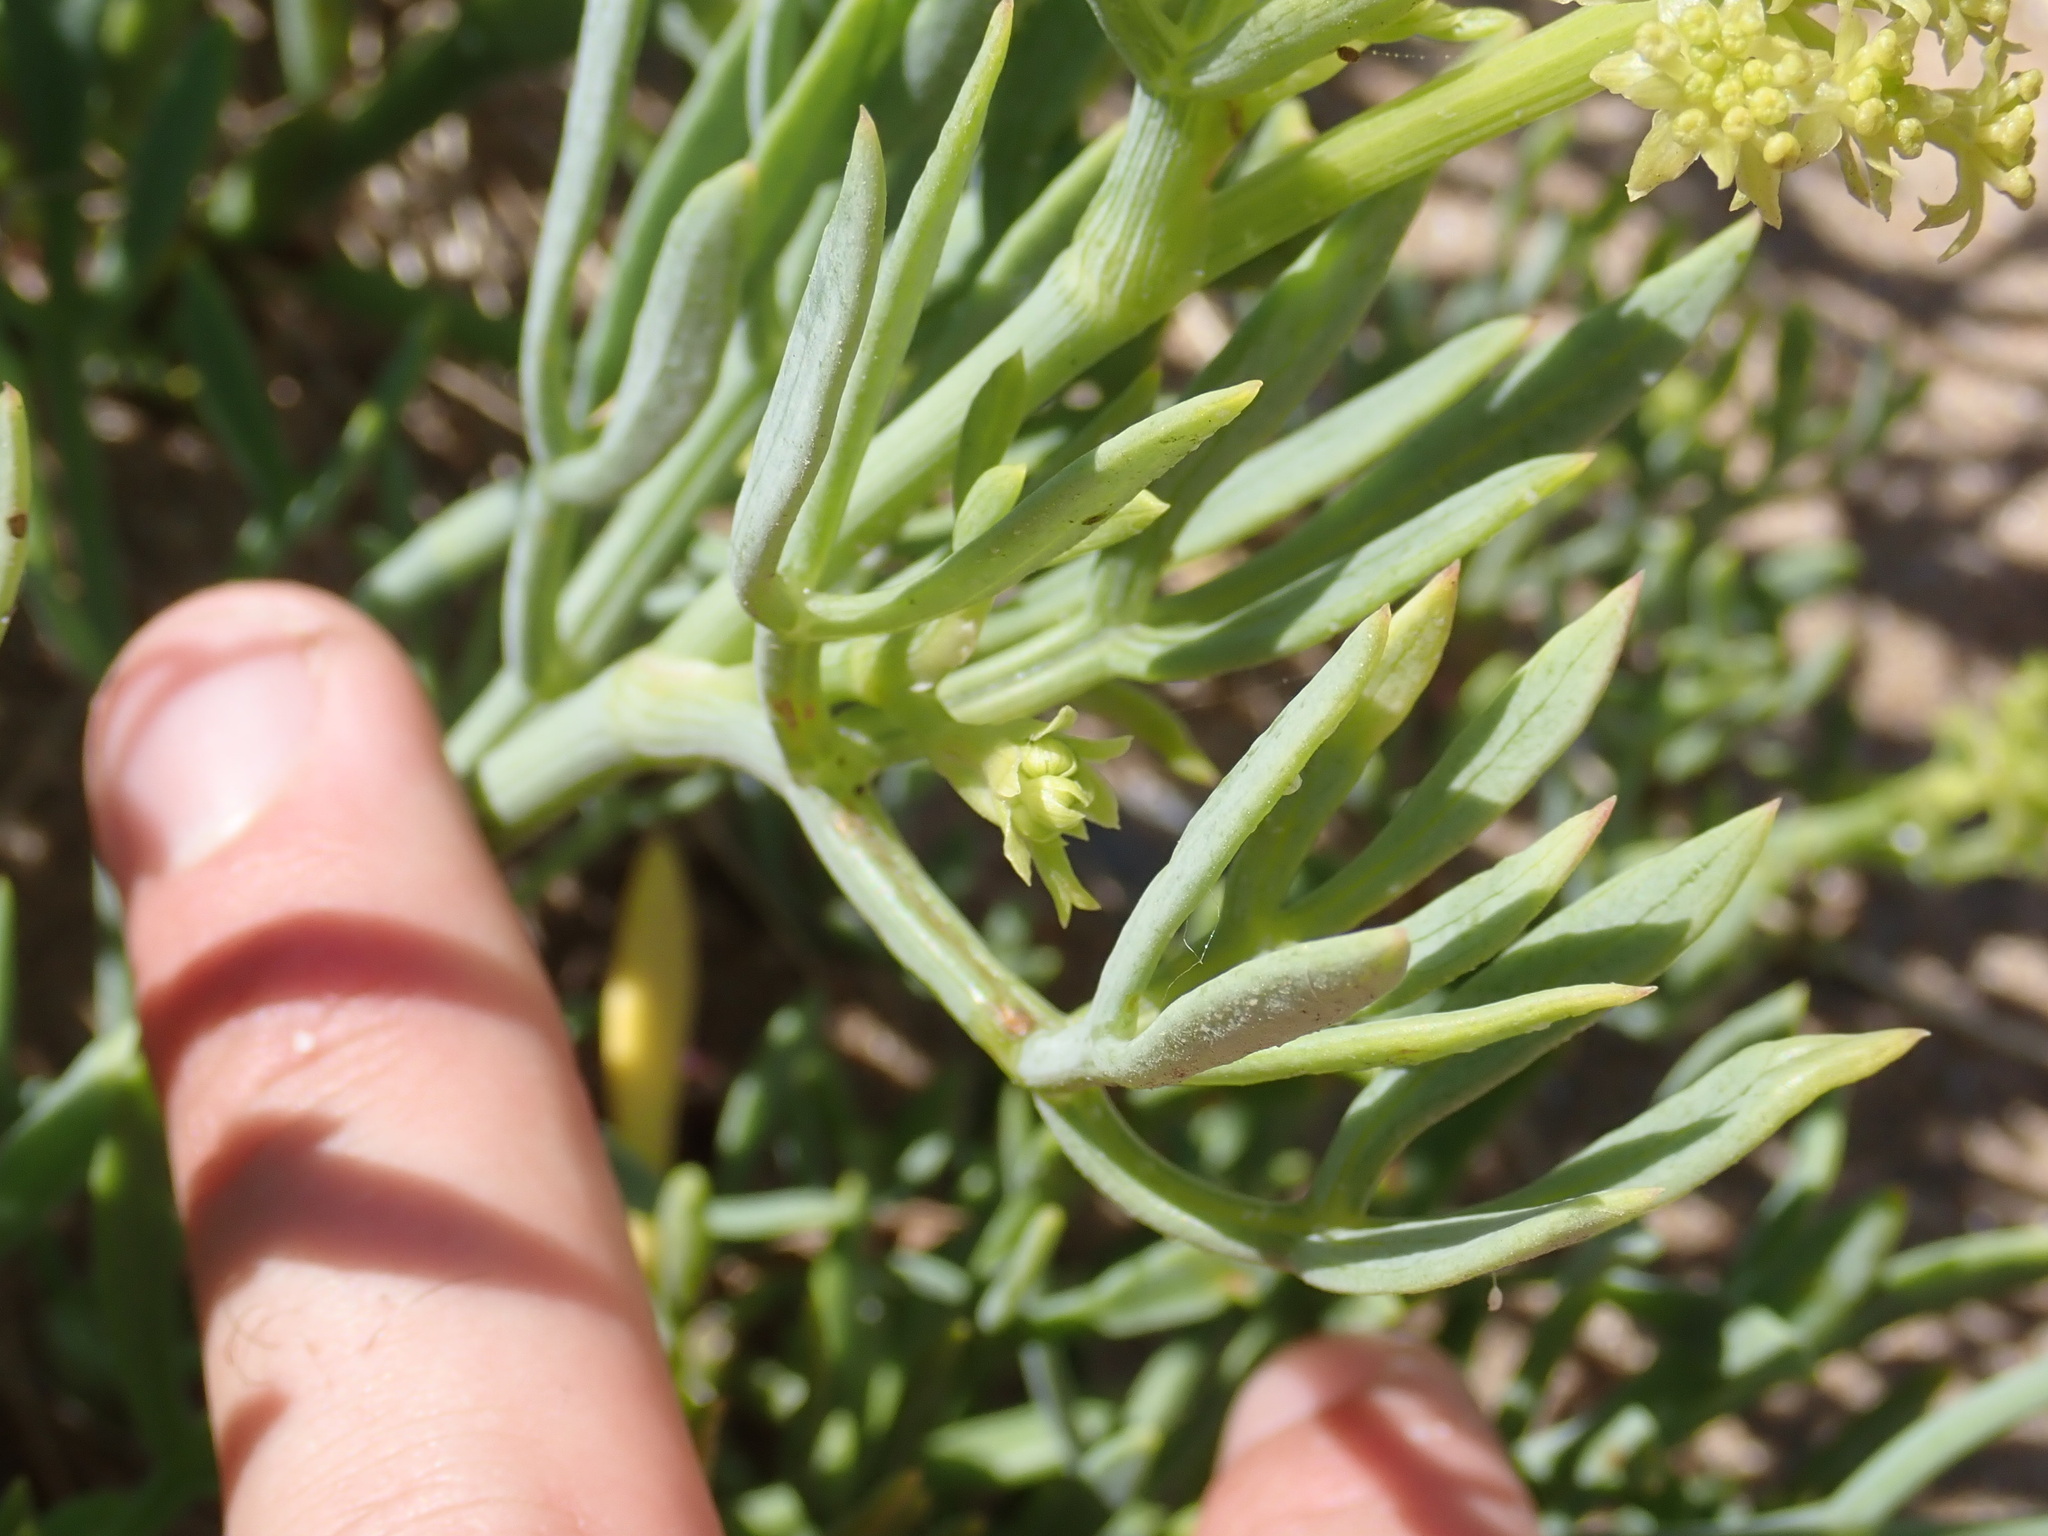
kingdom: Plantae
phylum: Tracheophyta
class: Magnoliopsida
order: Apiales
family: Apiaceae
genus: Crithmum
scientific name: Crithmum maritimum
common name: Rock samphire
